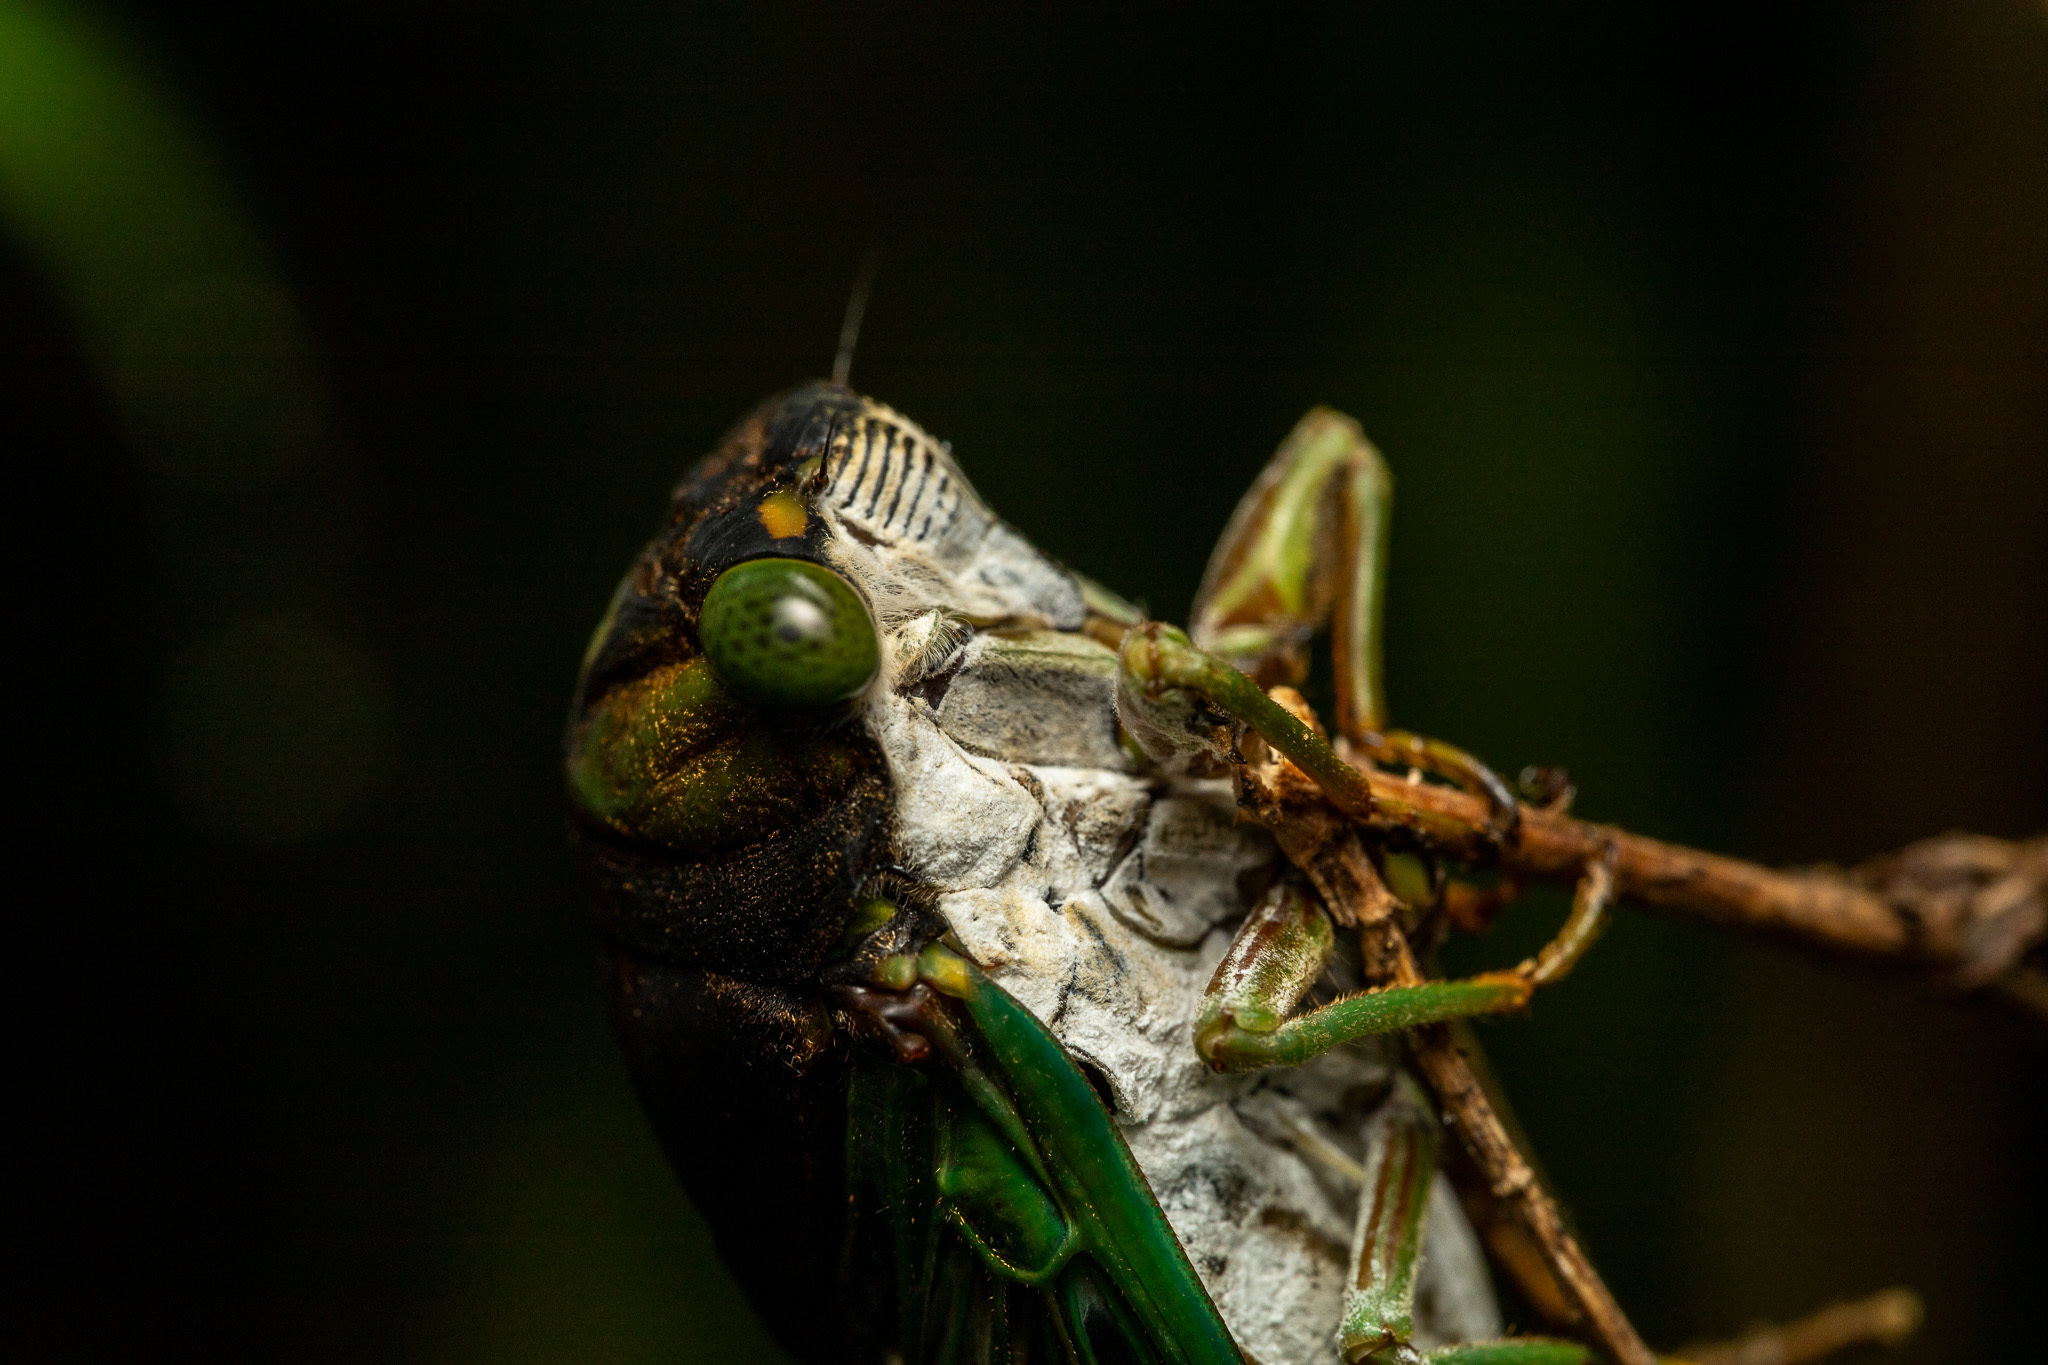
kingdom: Animalia
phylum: Arthropoda
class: Insecta
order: Hemiptera
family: Cicadidae
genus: Neotibicen
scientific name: Neotibicen tibicen
